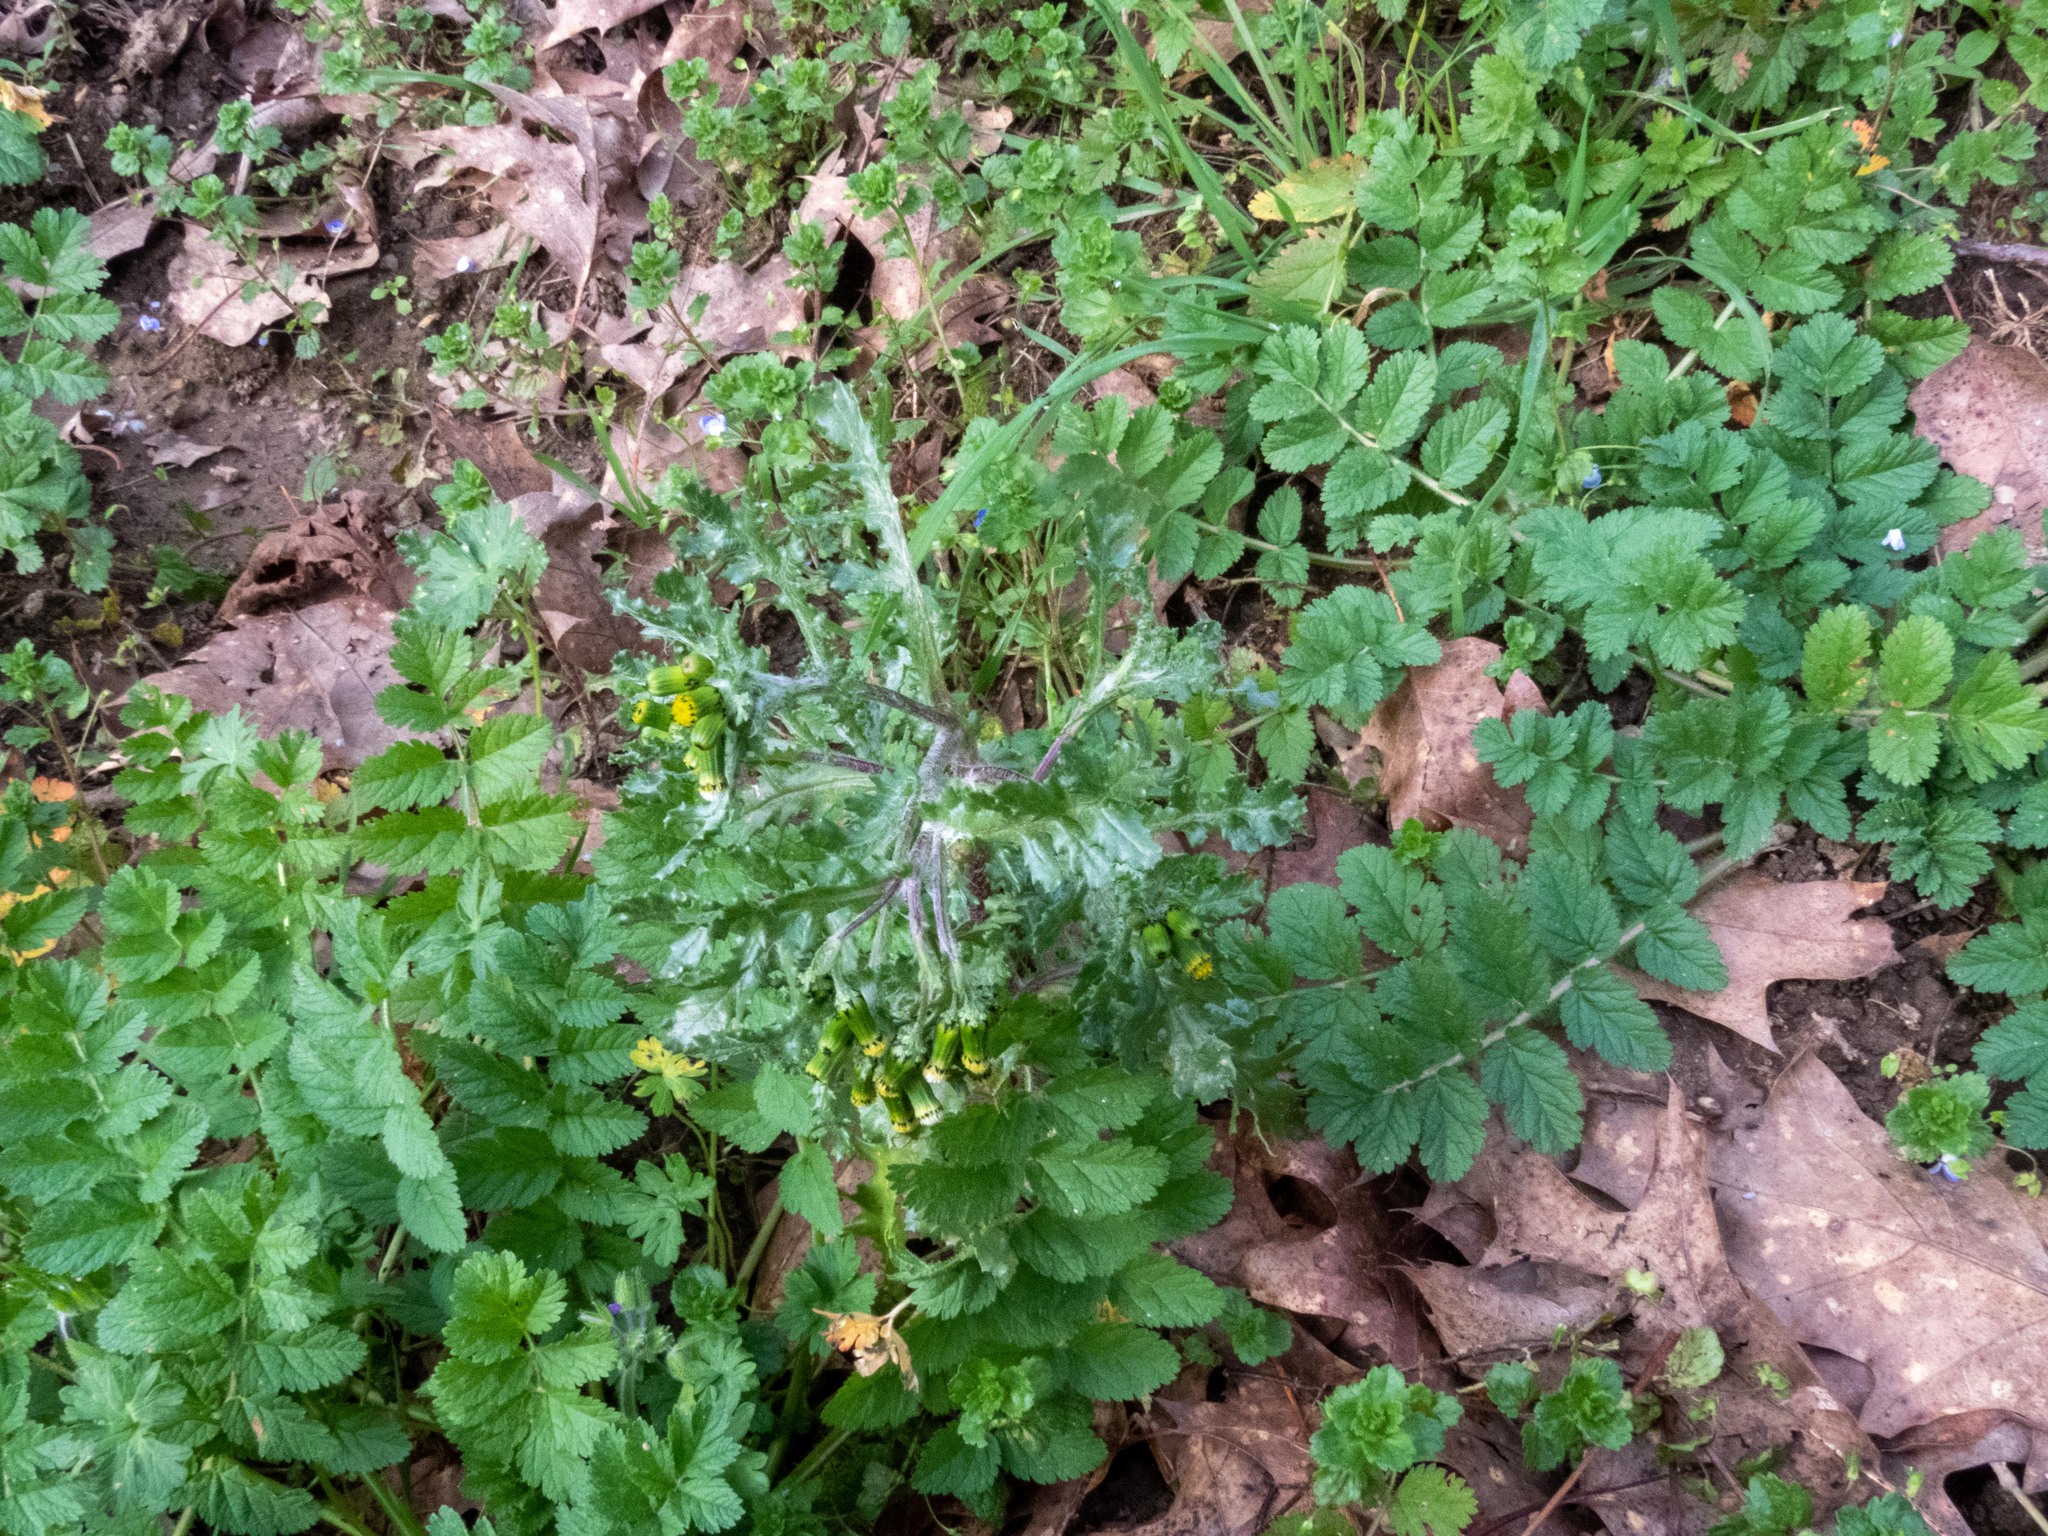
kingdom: Plantae
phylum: Tracheophyta
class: Magnoliopsida
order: Asterales
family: Asteraceae
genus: Senecio
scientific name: Senecio vulgaris
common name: Old-man-in-the-spring
